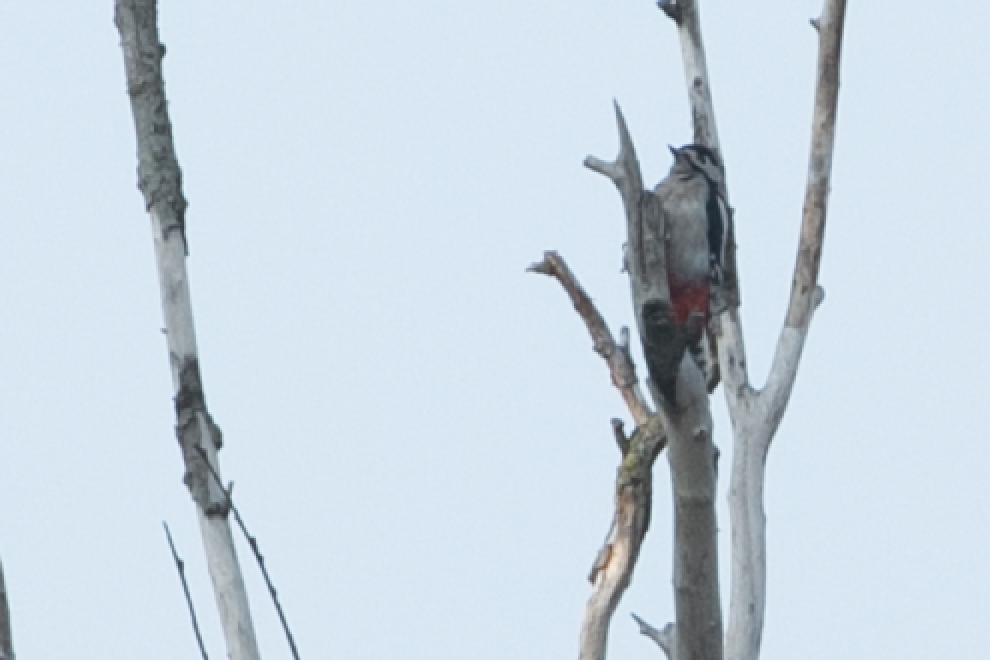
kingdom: Animalia
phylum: Chordata
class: Aves
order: Piciformes
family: Picidae
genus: Dendrocopos
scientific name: Dendrocopos major
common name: Great spotted woodpecker
